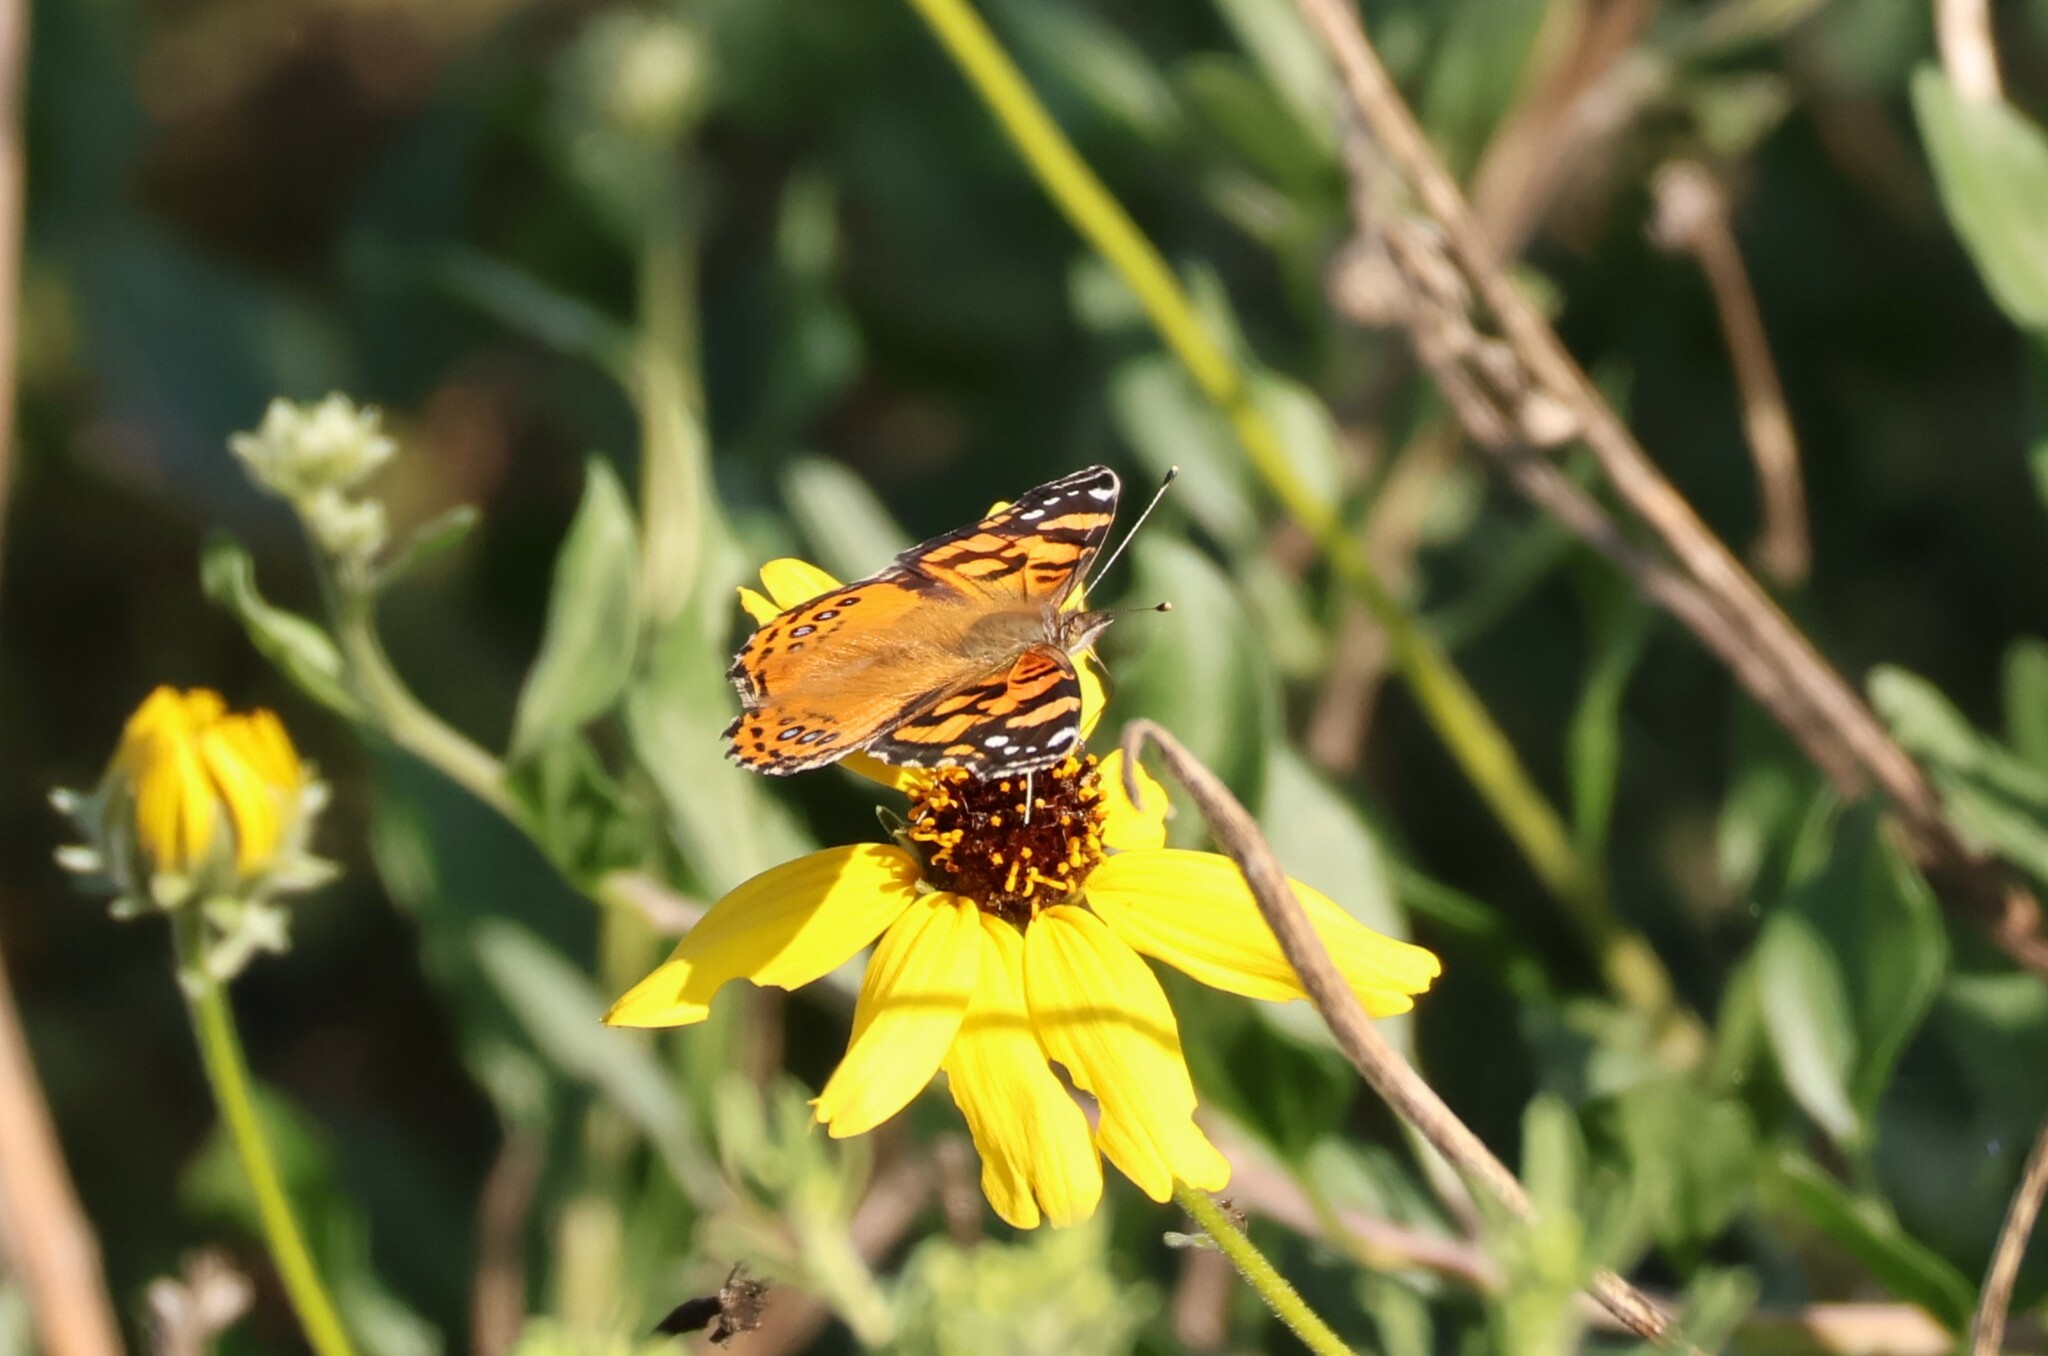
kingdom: Animalia
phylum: Arthropoda
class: Insecta
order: Lepidoptera
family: Nymphalidae
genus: Vanessa
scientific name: Vanessa annabella
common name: West coast lady
